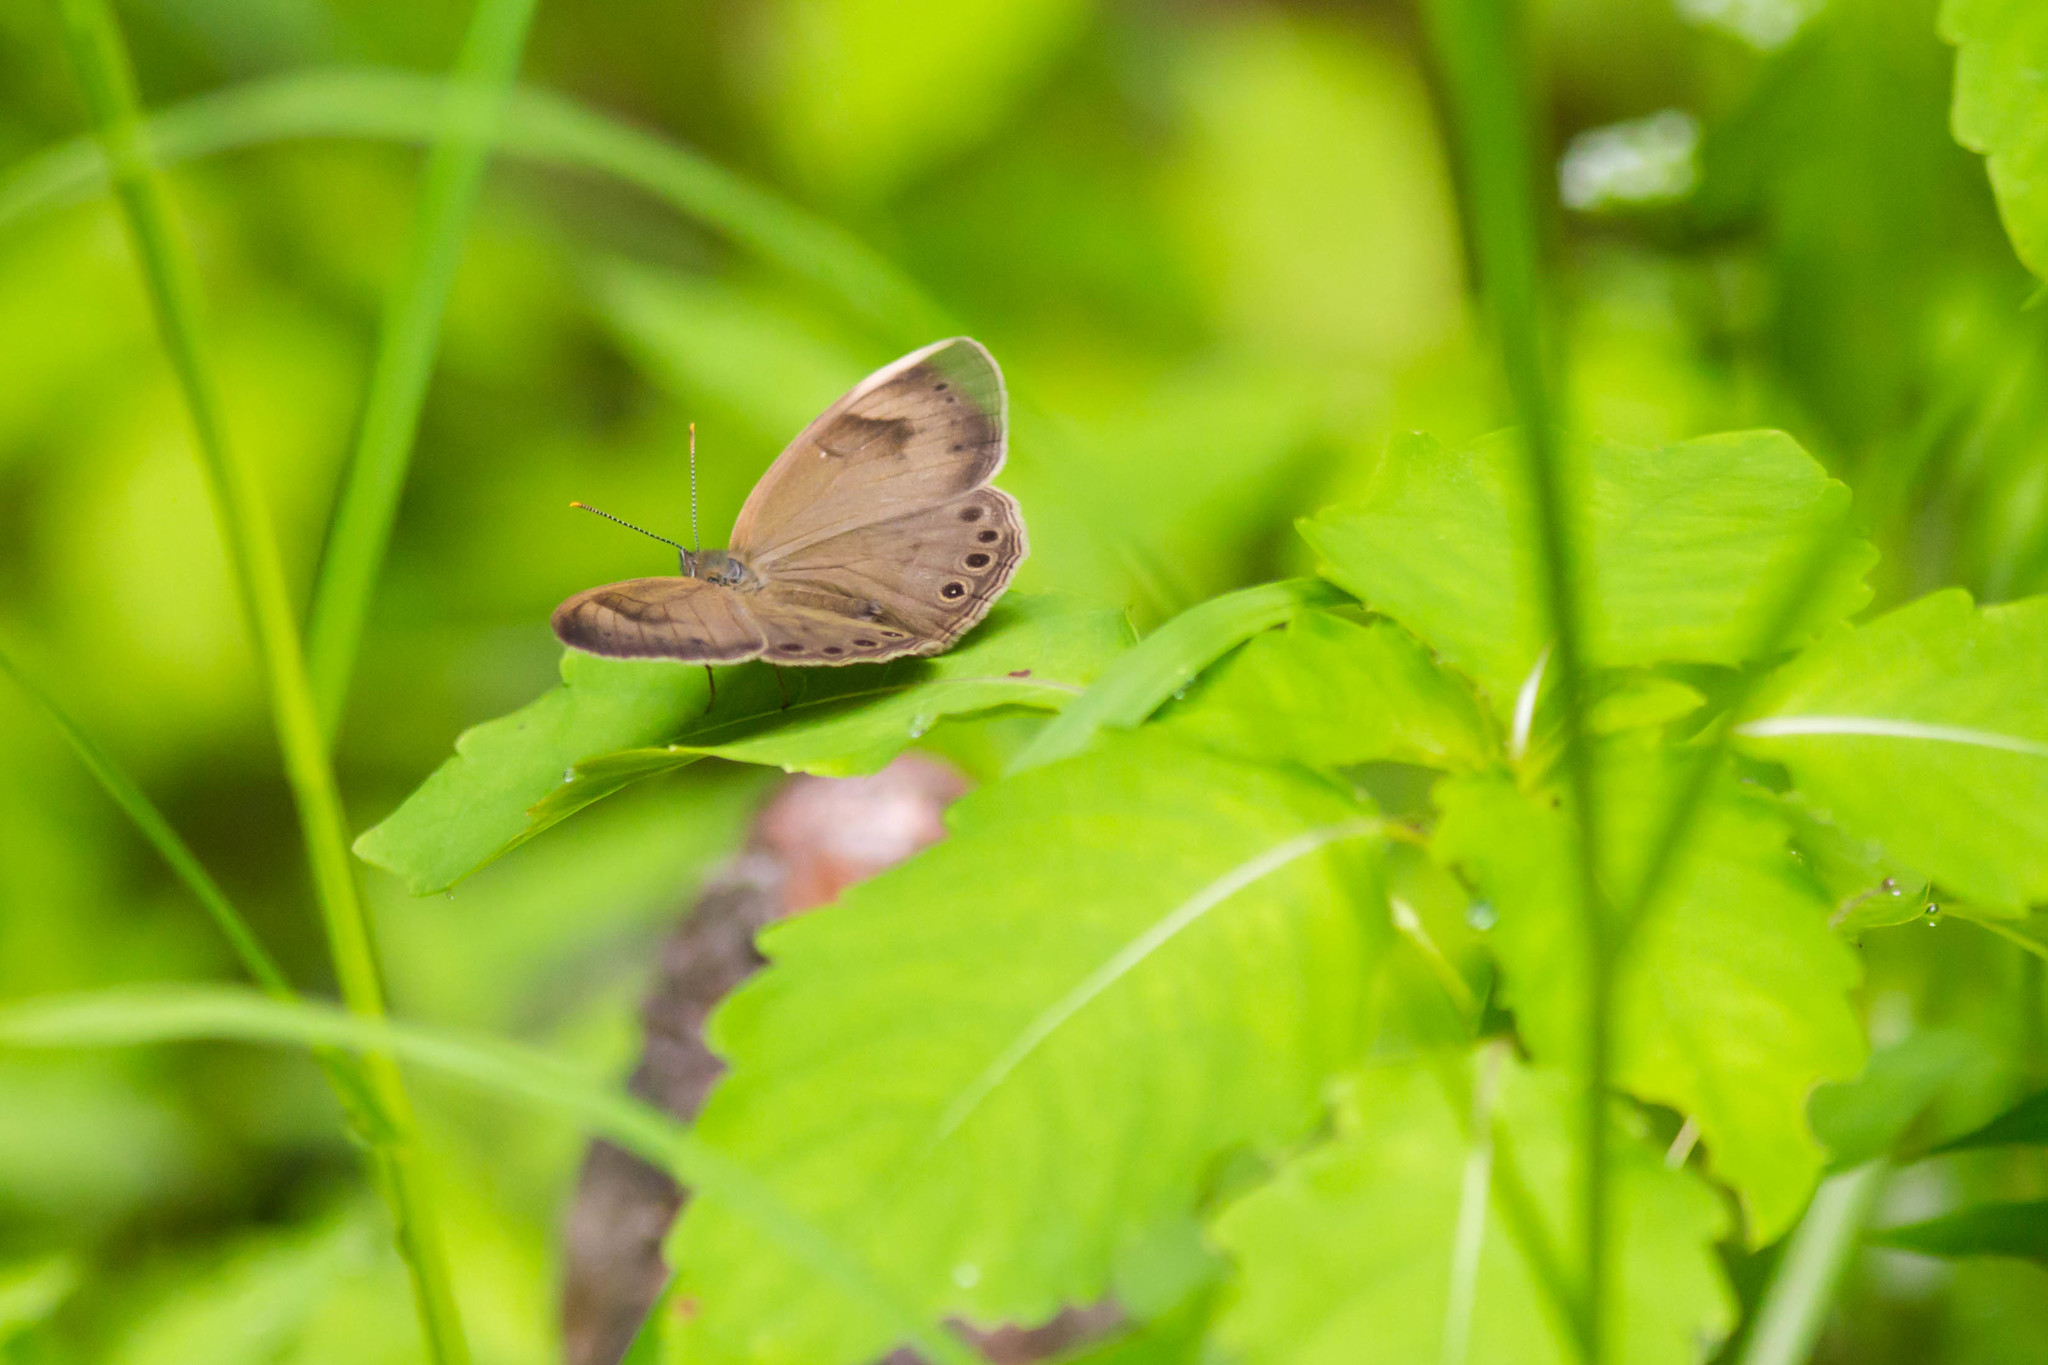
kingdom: Animalia
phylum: Arthropoda
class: Insecta
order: Lepidoptera
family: Nymphalidae
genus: Lethe
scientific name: Lethe eurydice
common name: Eyed brown
